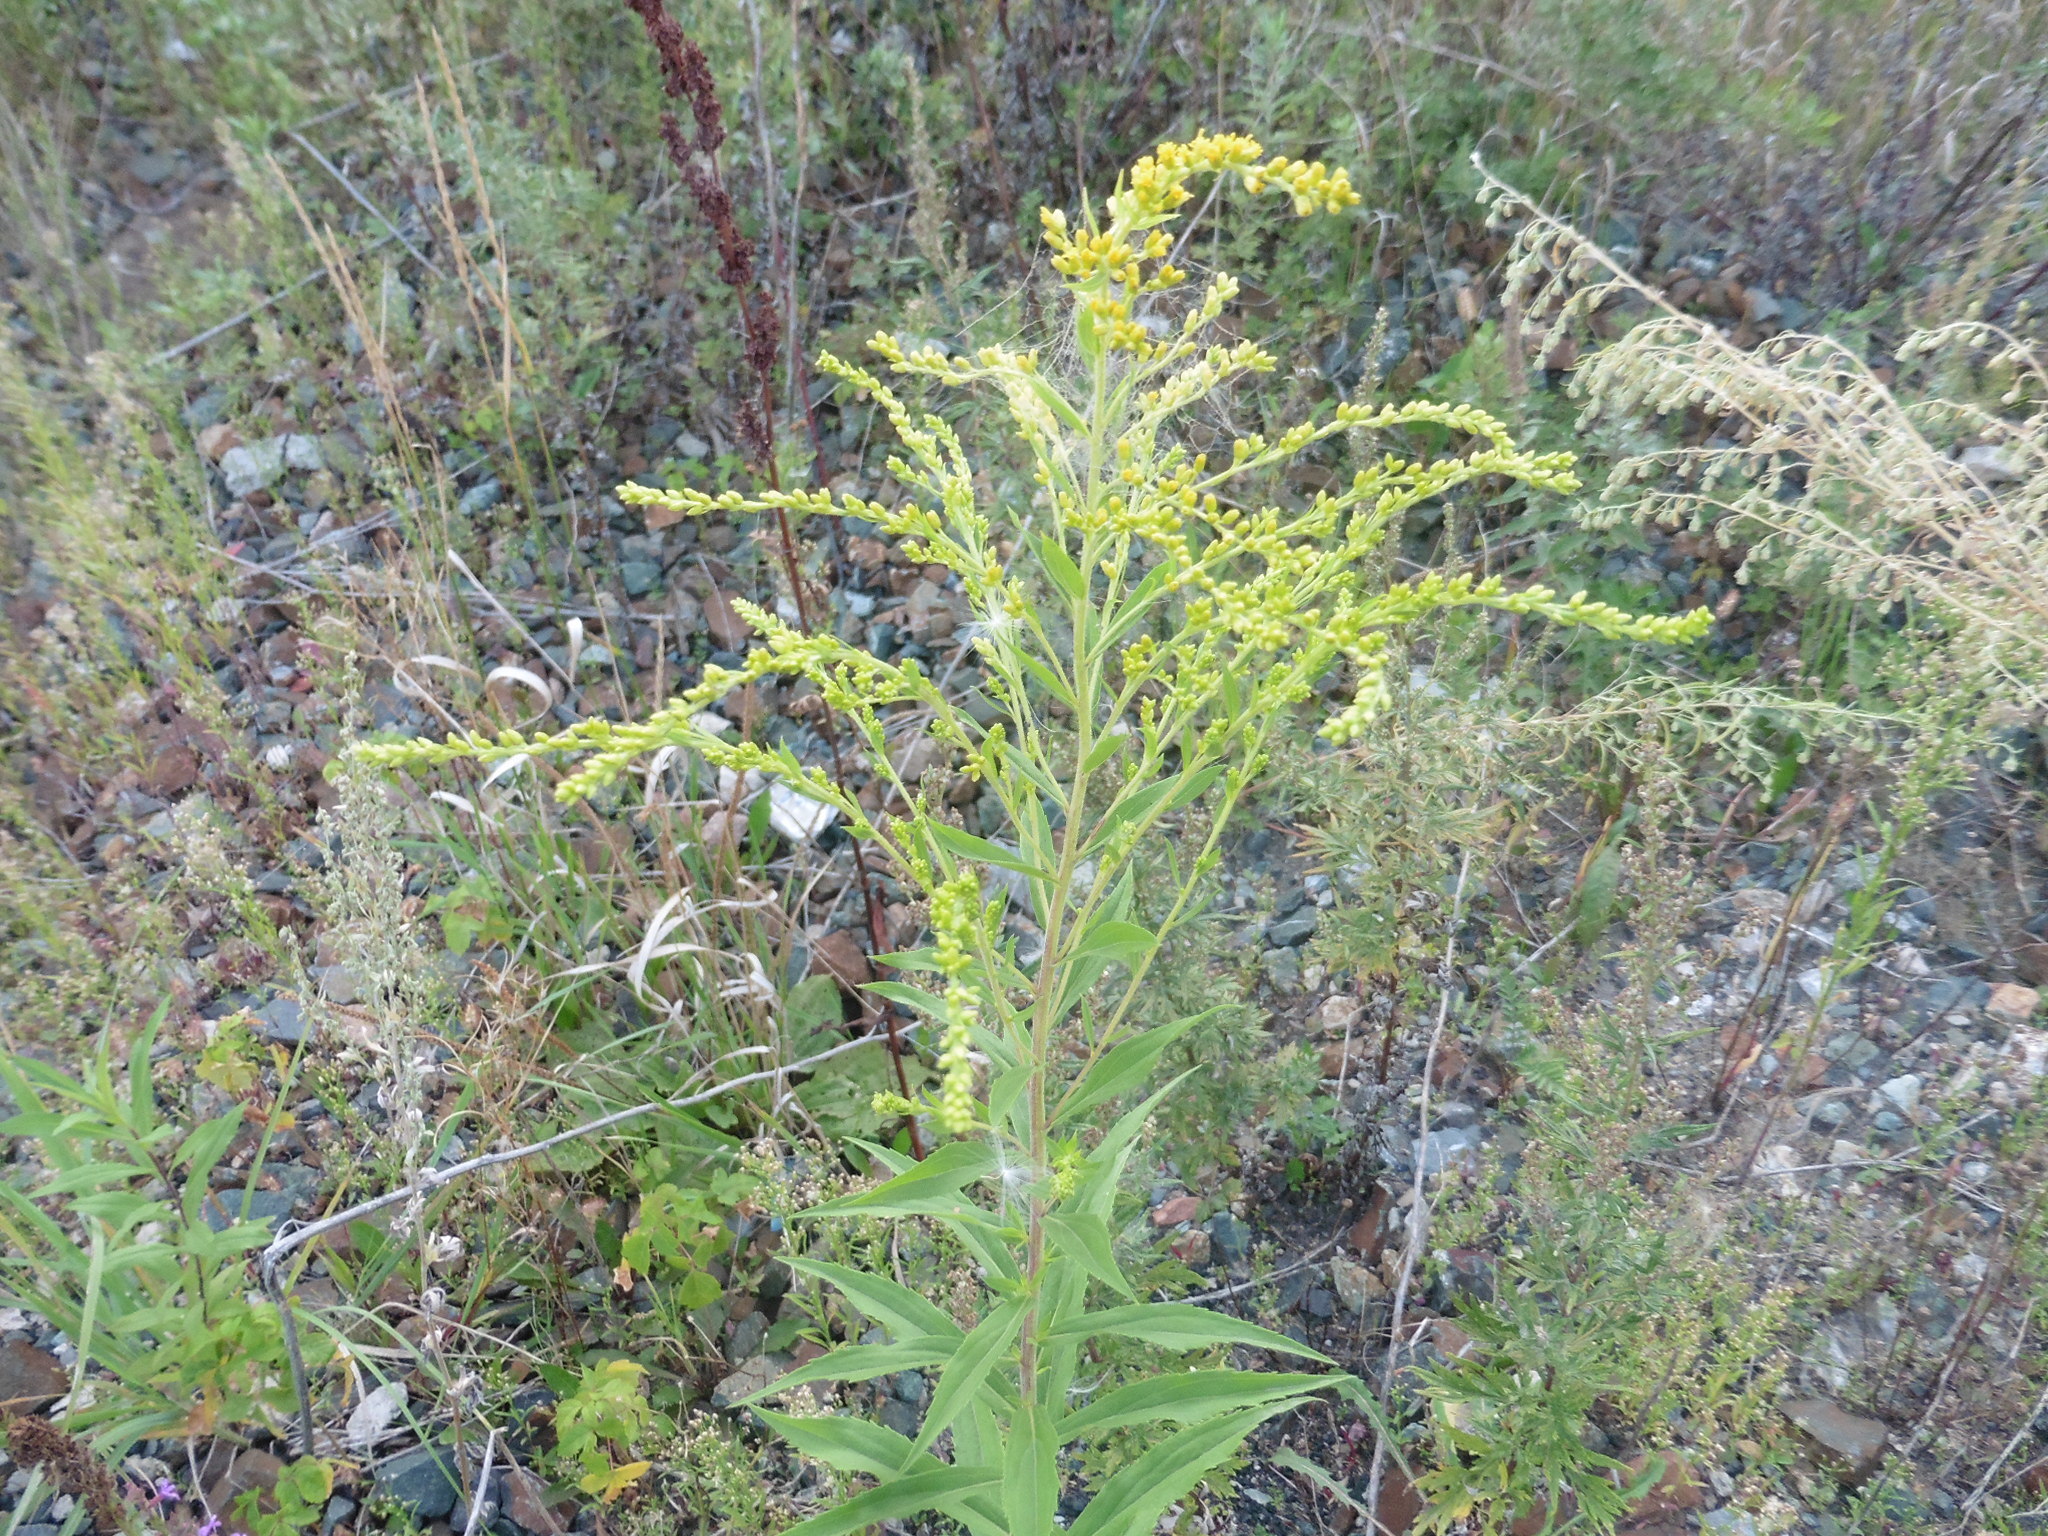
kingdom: Plantae
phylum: Tracheophyta
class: Magnoliopsida
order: Asterales
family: Asteraceae
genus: Solidago
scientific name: Solidago canadensis
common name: Canada goldenrod
